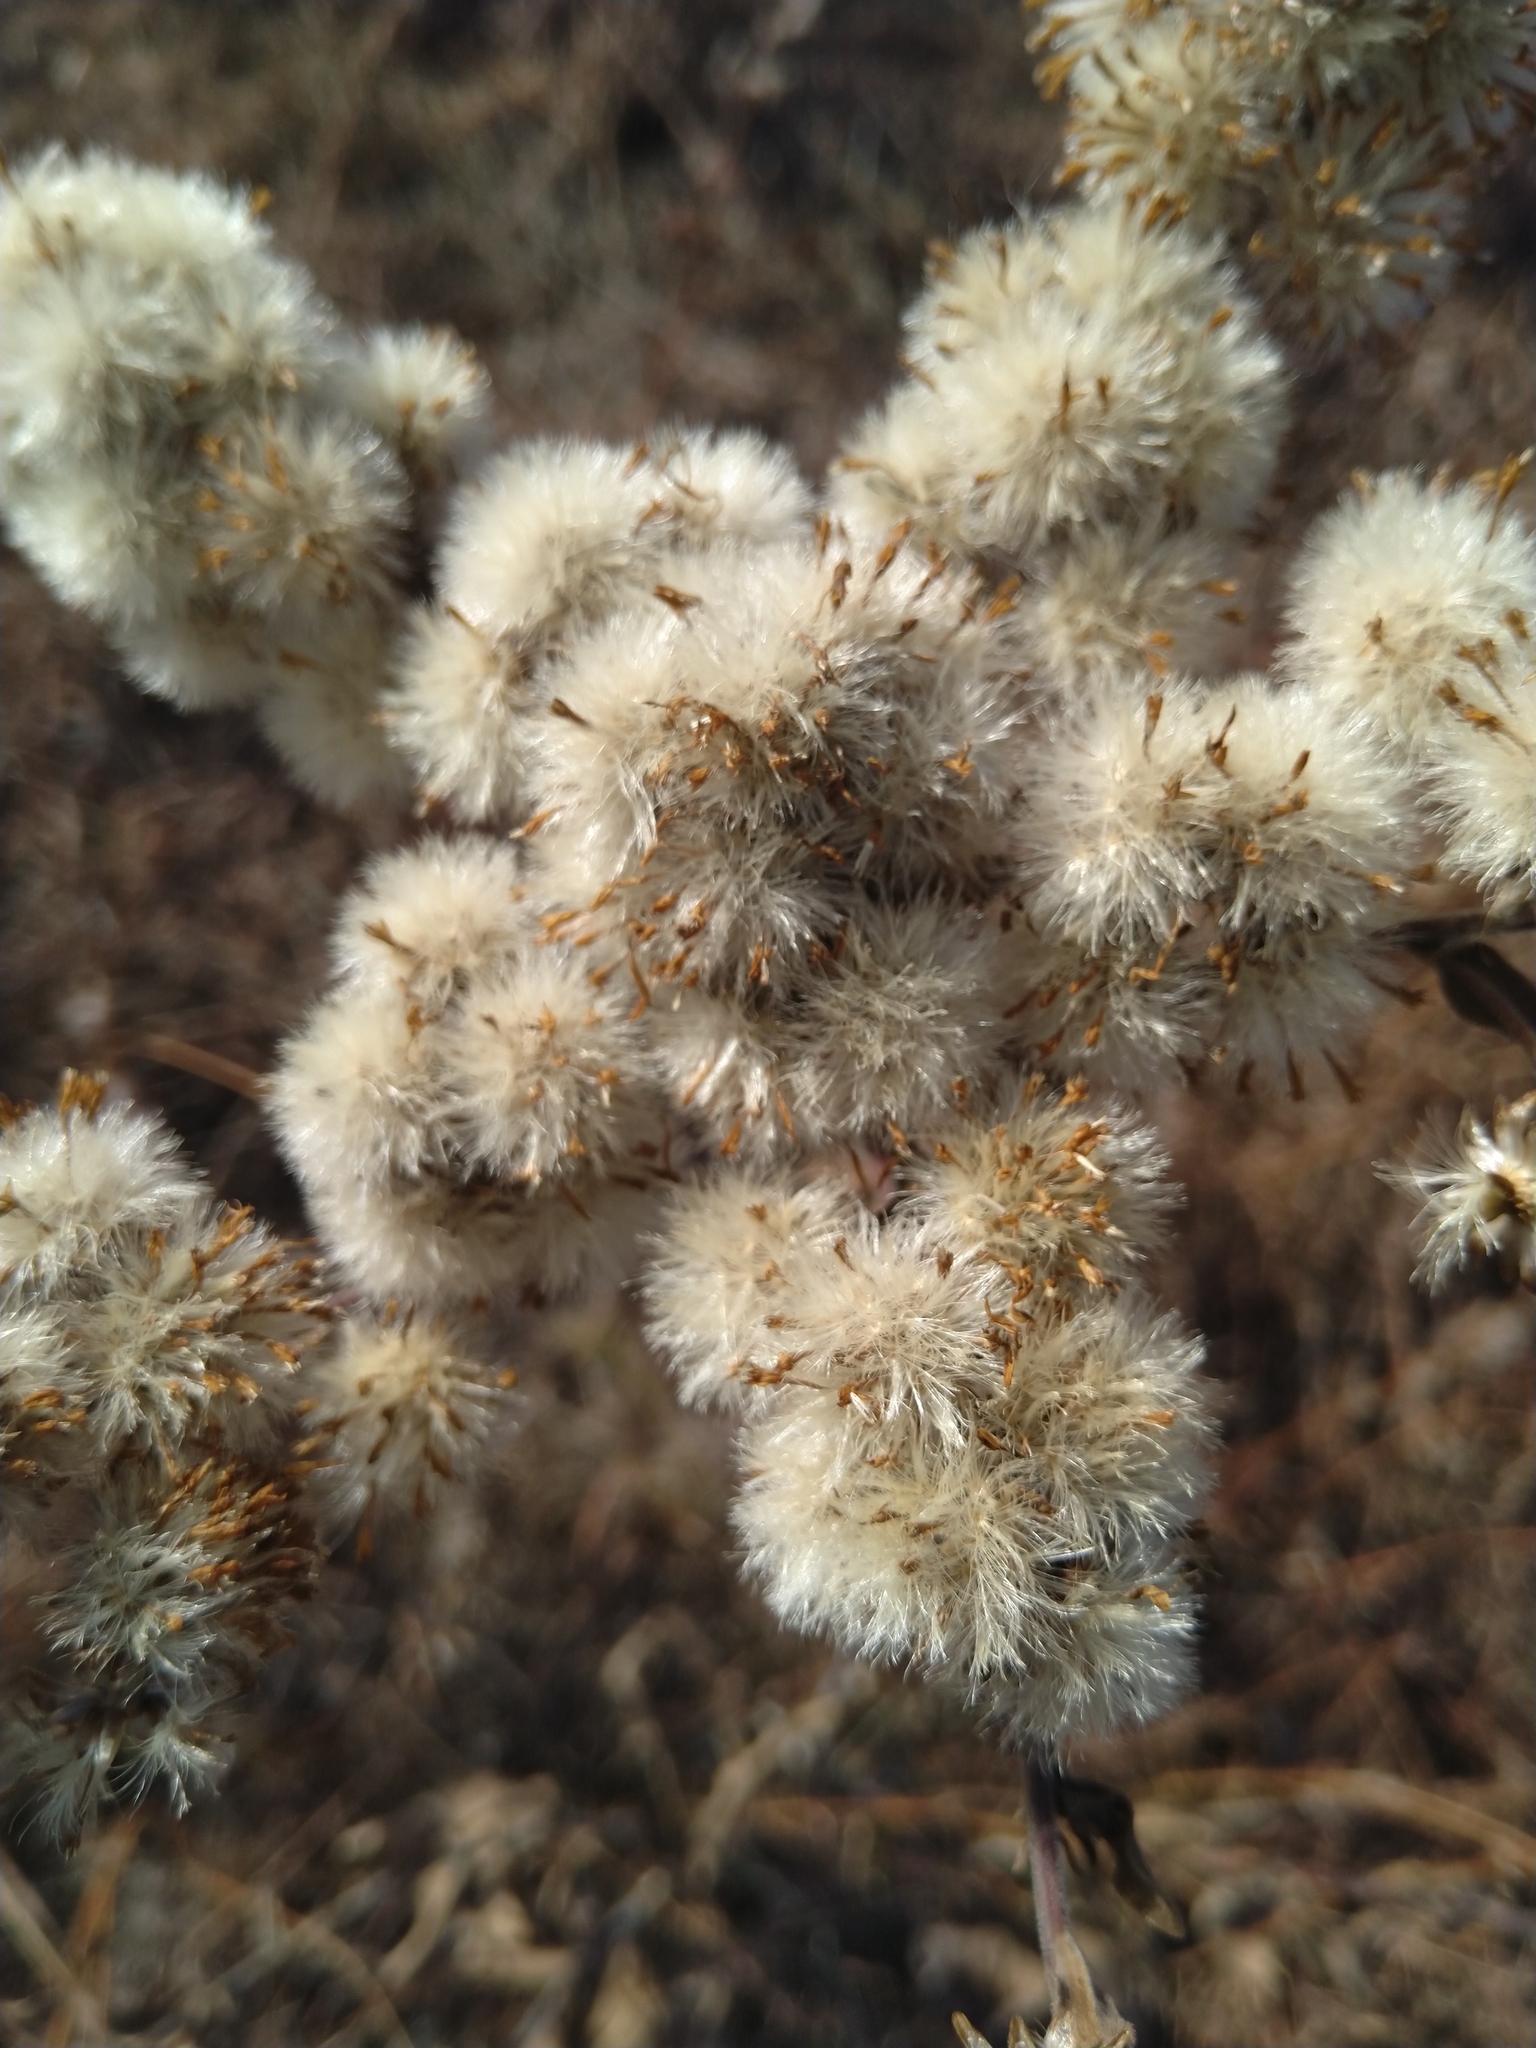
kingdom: Plantae
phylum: Tracheophyta
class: Magnoliopsida
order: Asterales
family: Asteraceae
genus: Solidago
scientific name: Solidago rigida
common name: Rigid goldenrod
